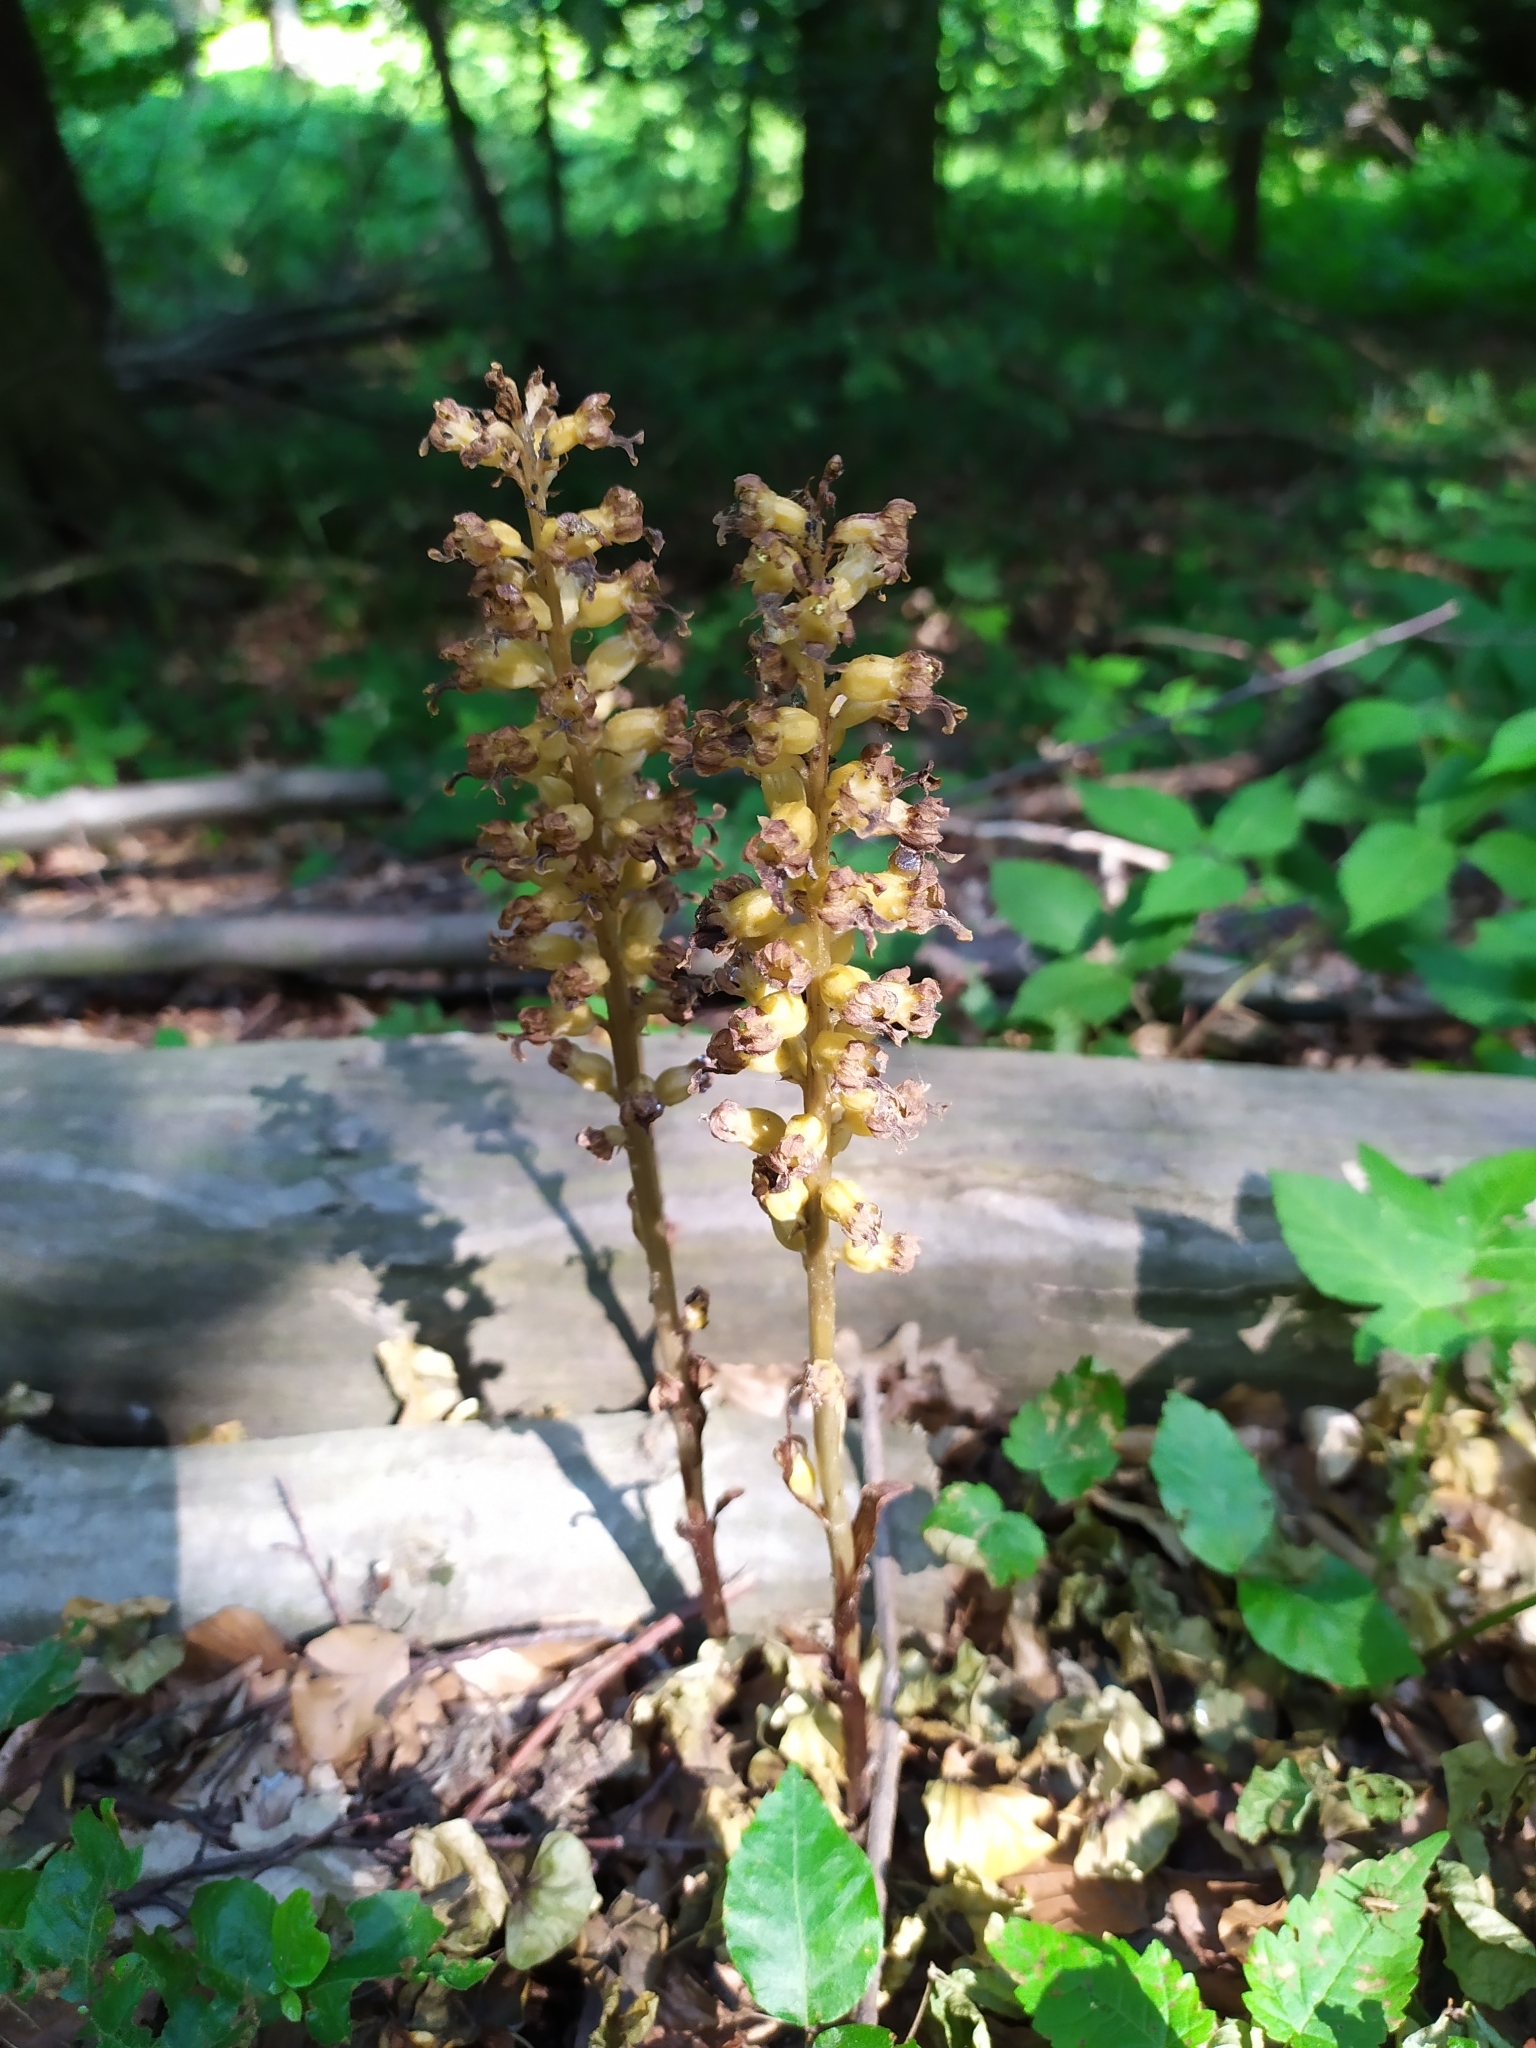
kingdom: Plantae
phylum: Tracheophyta
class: Liliopsida
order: Asparagales
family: Orchidaceae
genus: Neottia
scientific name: Neottia nidus-avis
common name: Bird's-nest orchid
